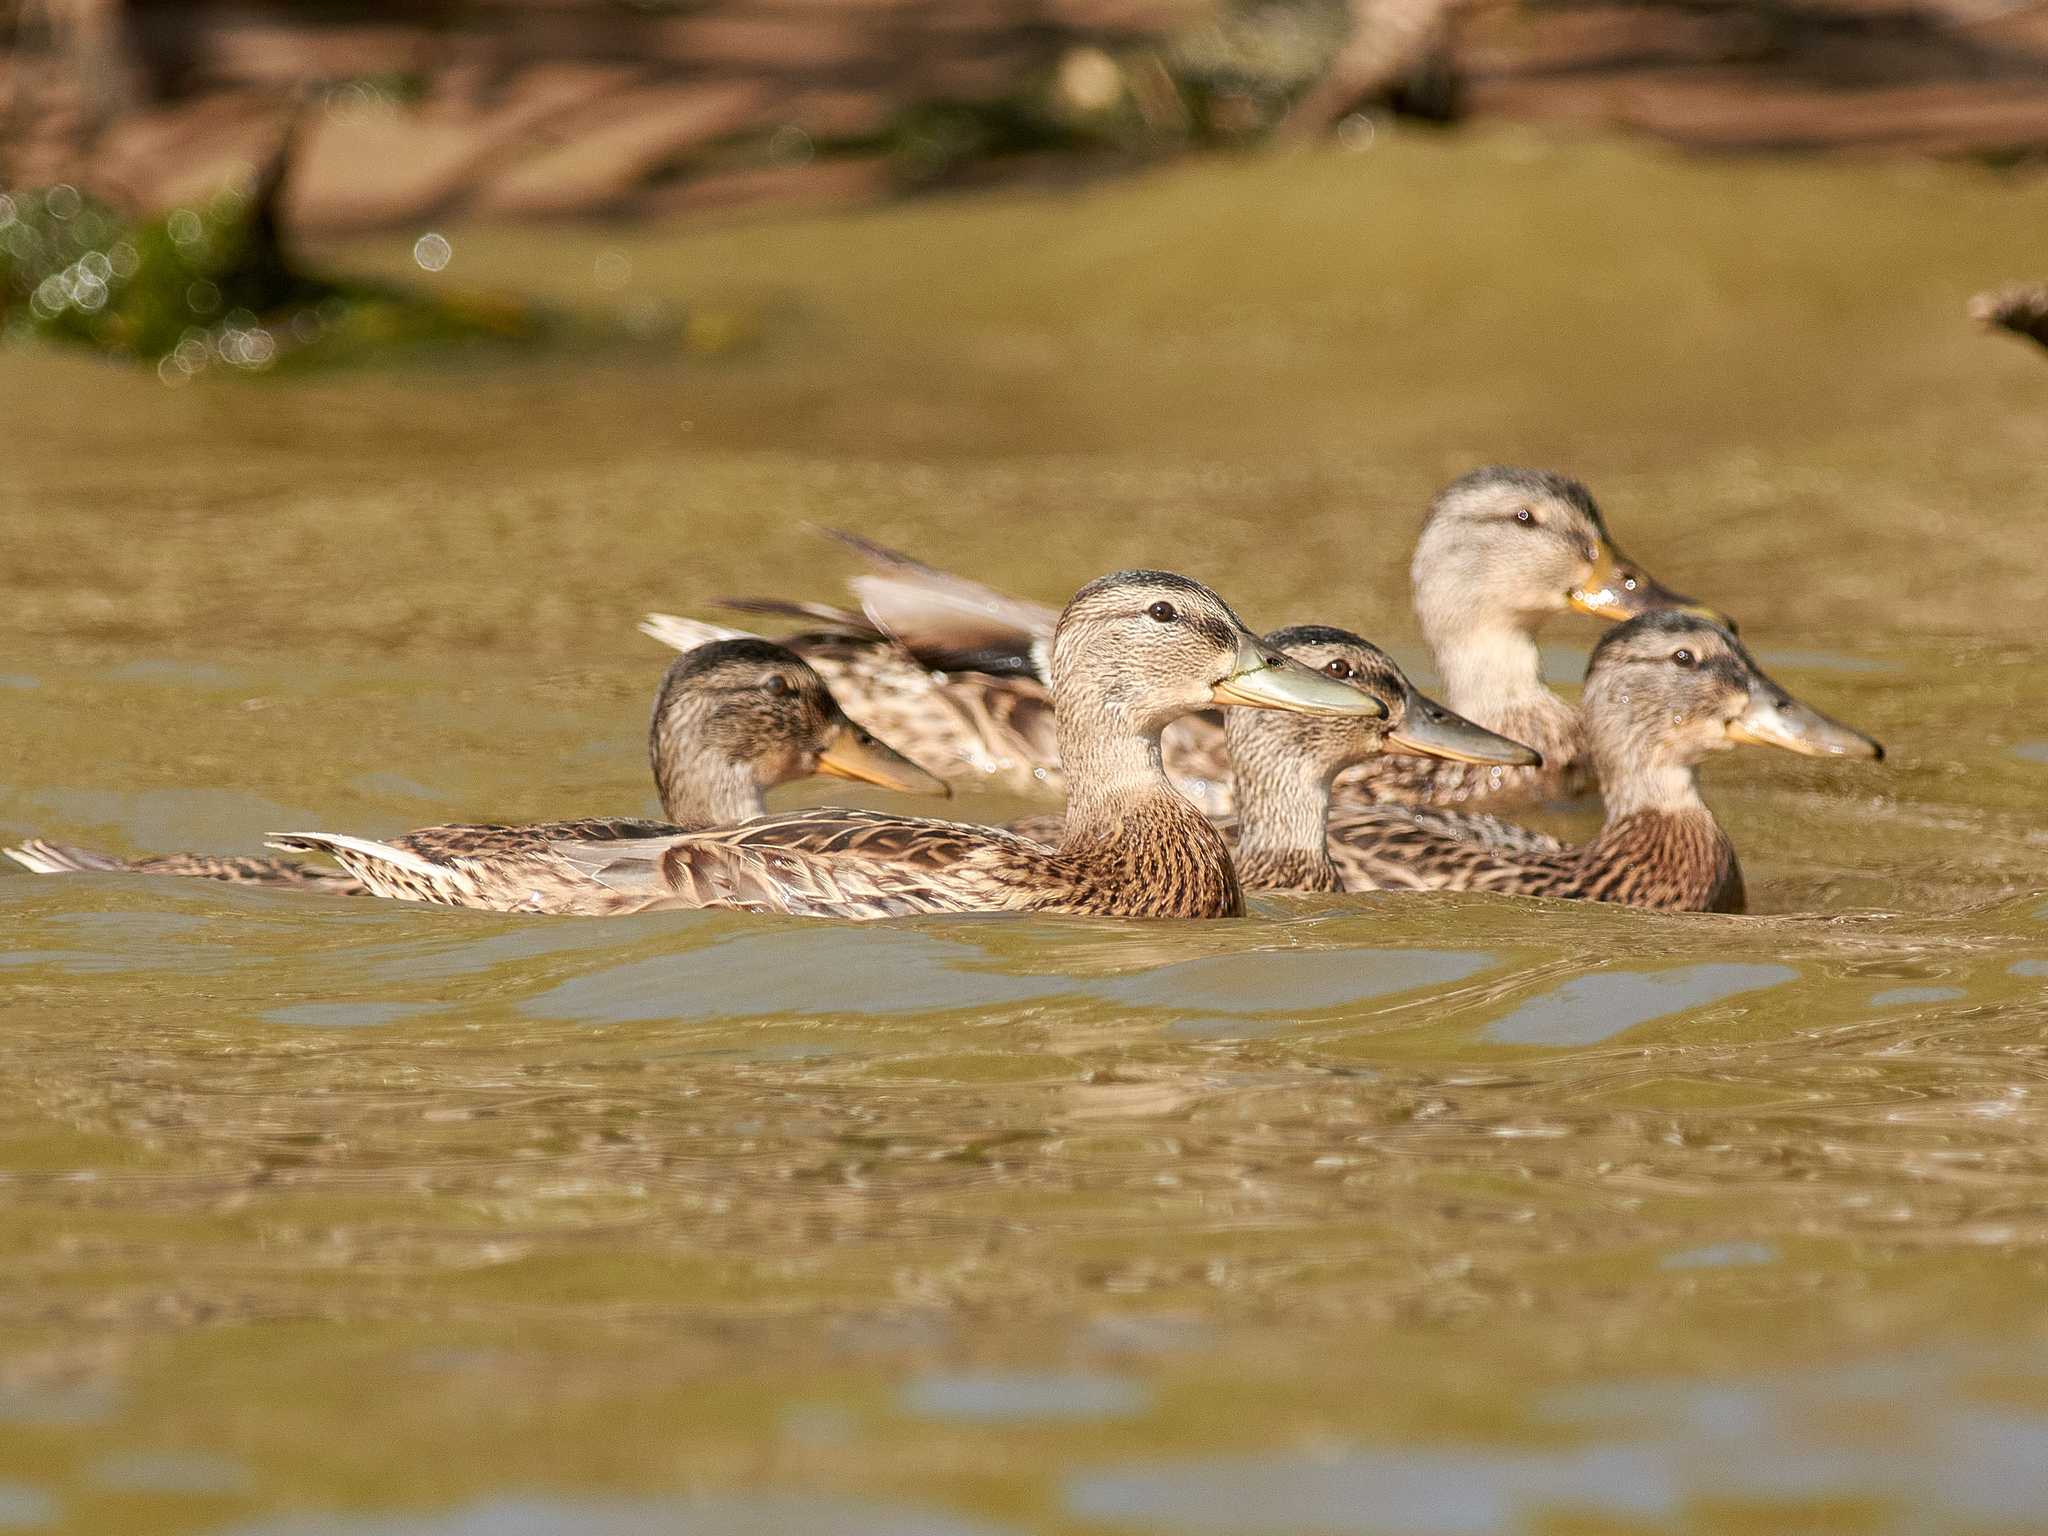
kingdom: Animalia
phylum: Chordata
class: Aves
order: Anseriformes
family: Anatidae
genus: Anas
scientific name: Anas platyrhynchos
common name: Mallard
